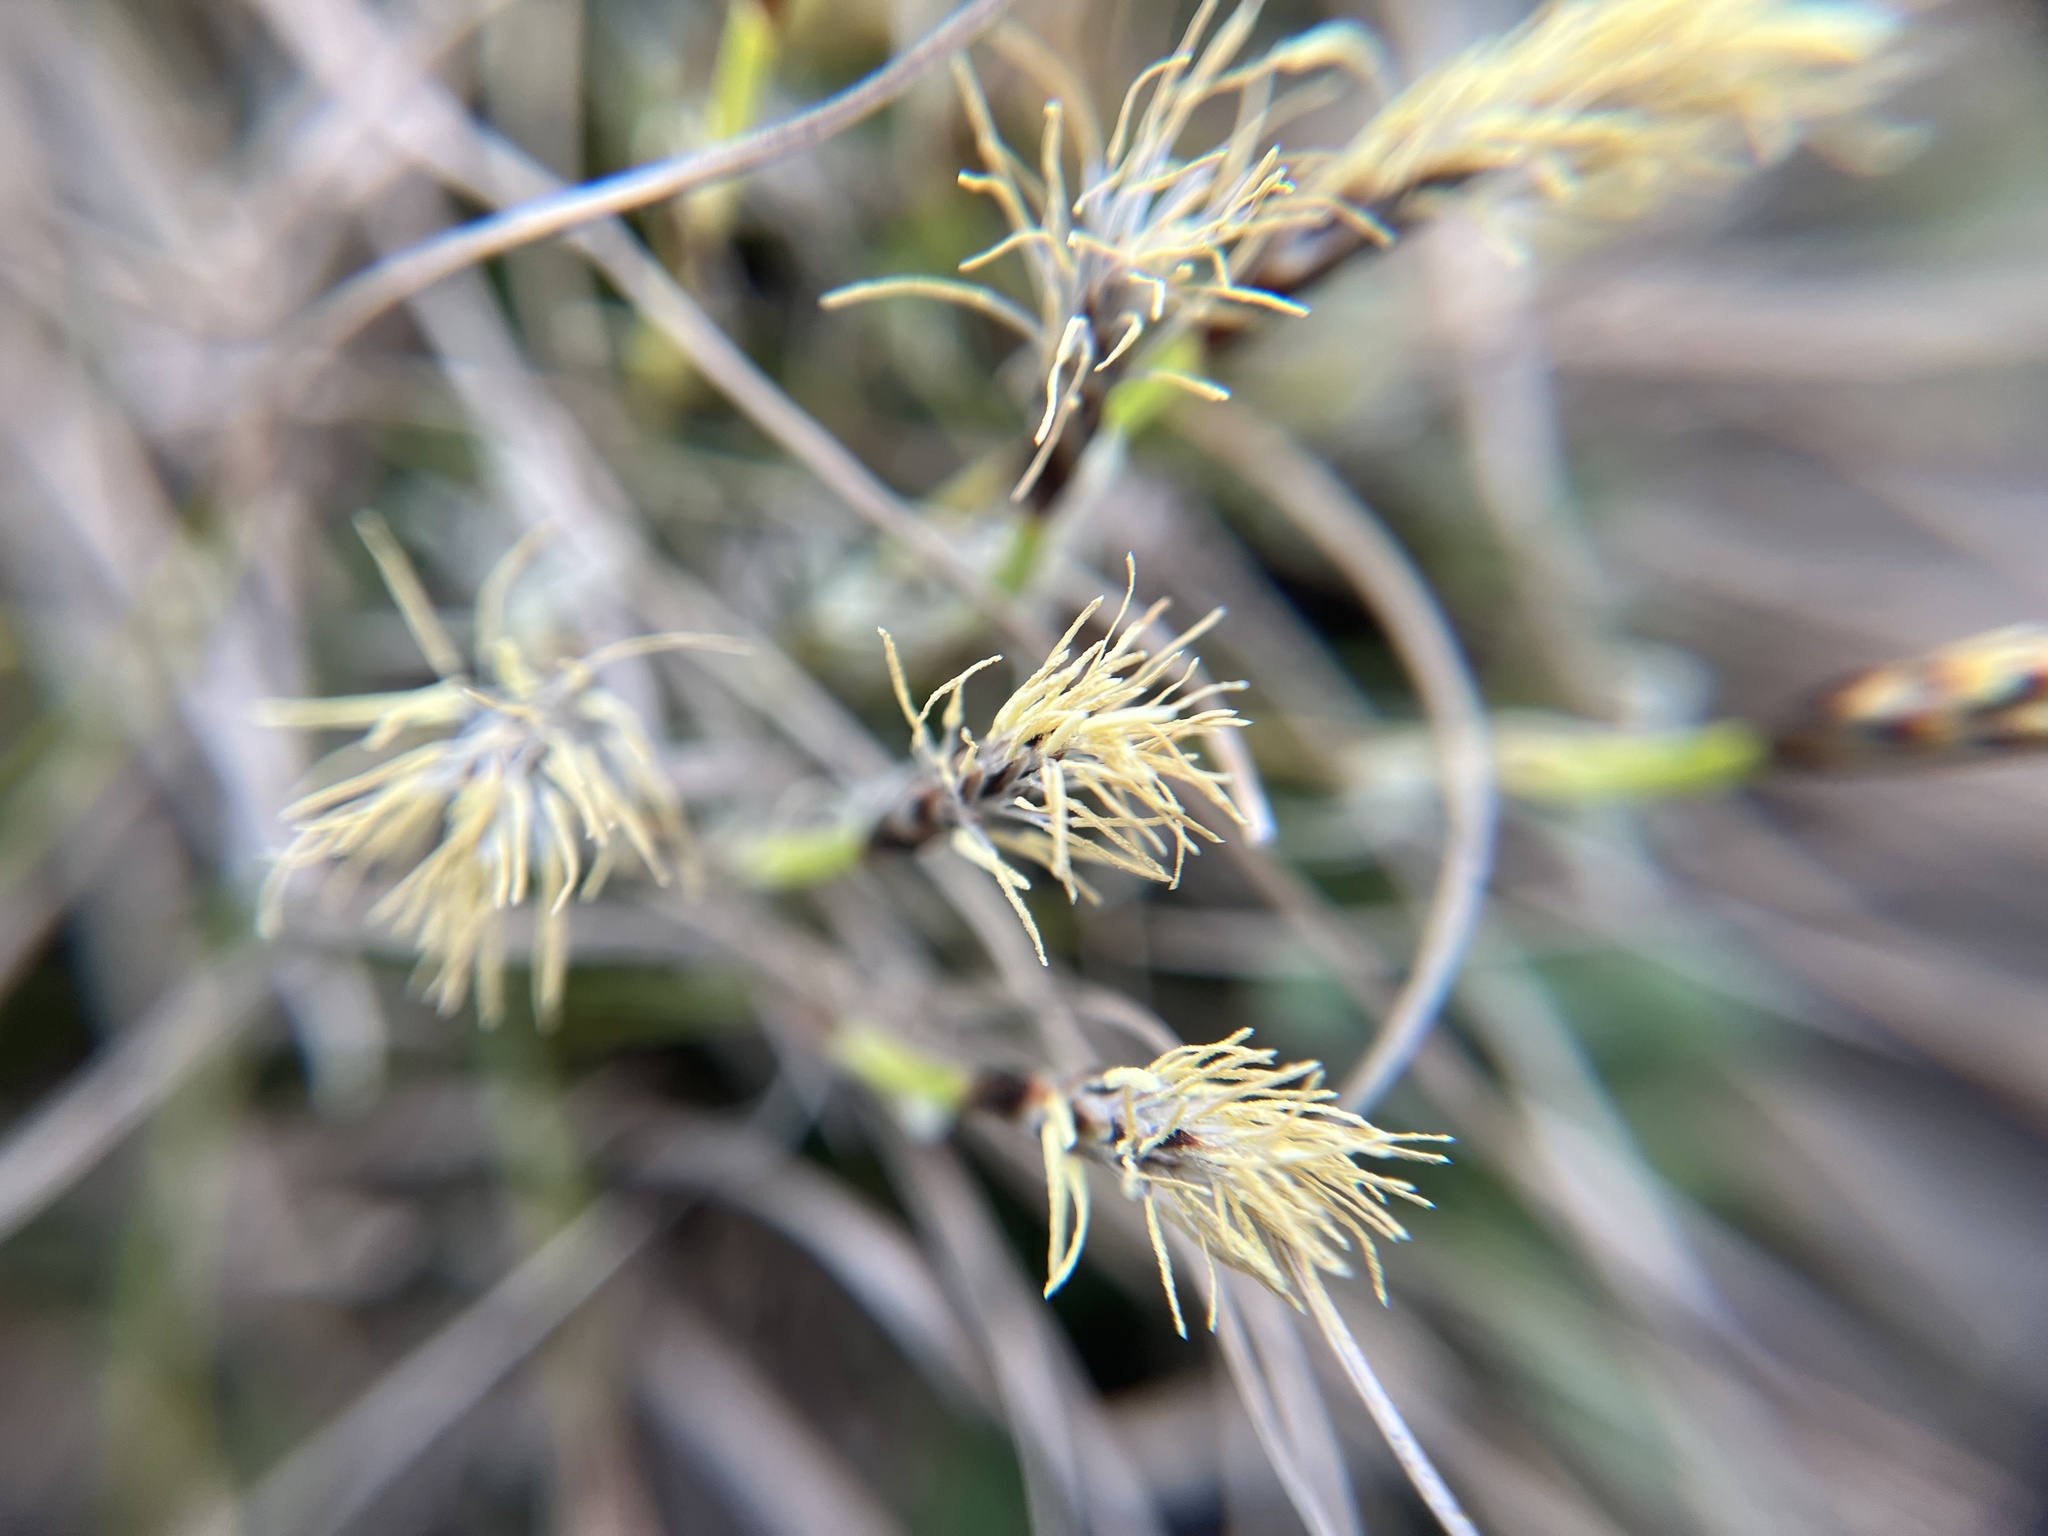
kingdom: Plantae
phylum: Tracheophyta
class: Liliopsida
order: Poales
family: Cyperaceae
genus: Carex
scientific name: Carex humilis
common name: Dwarf sedge
